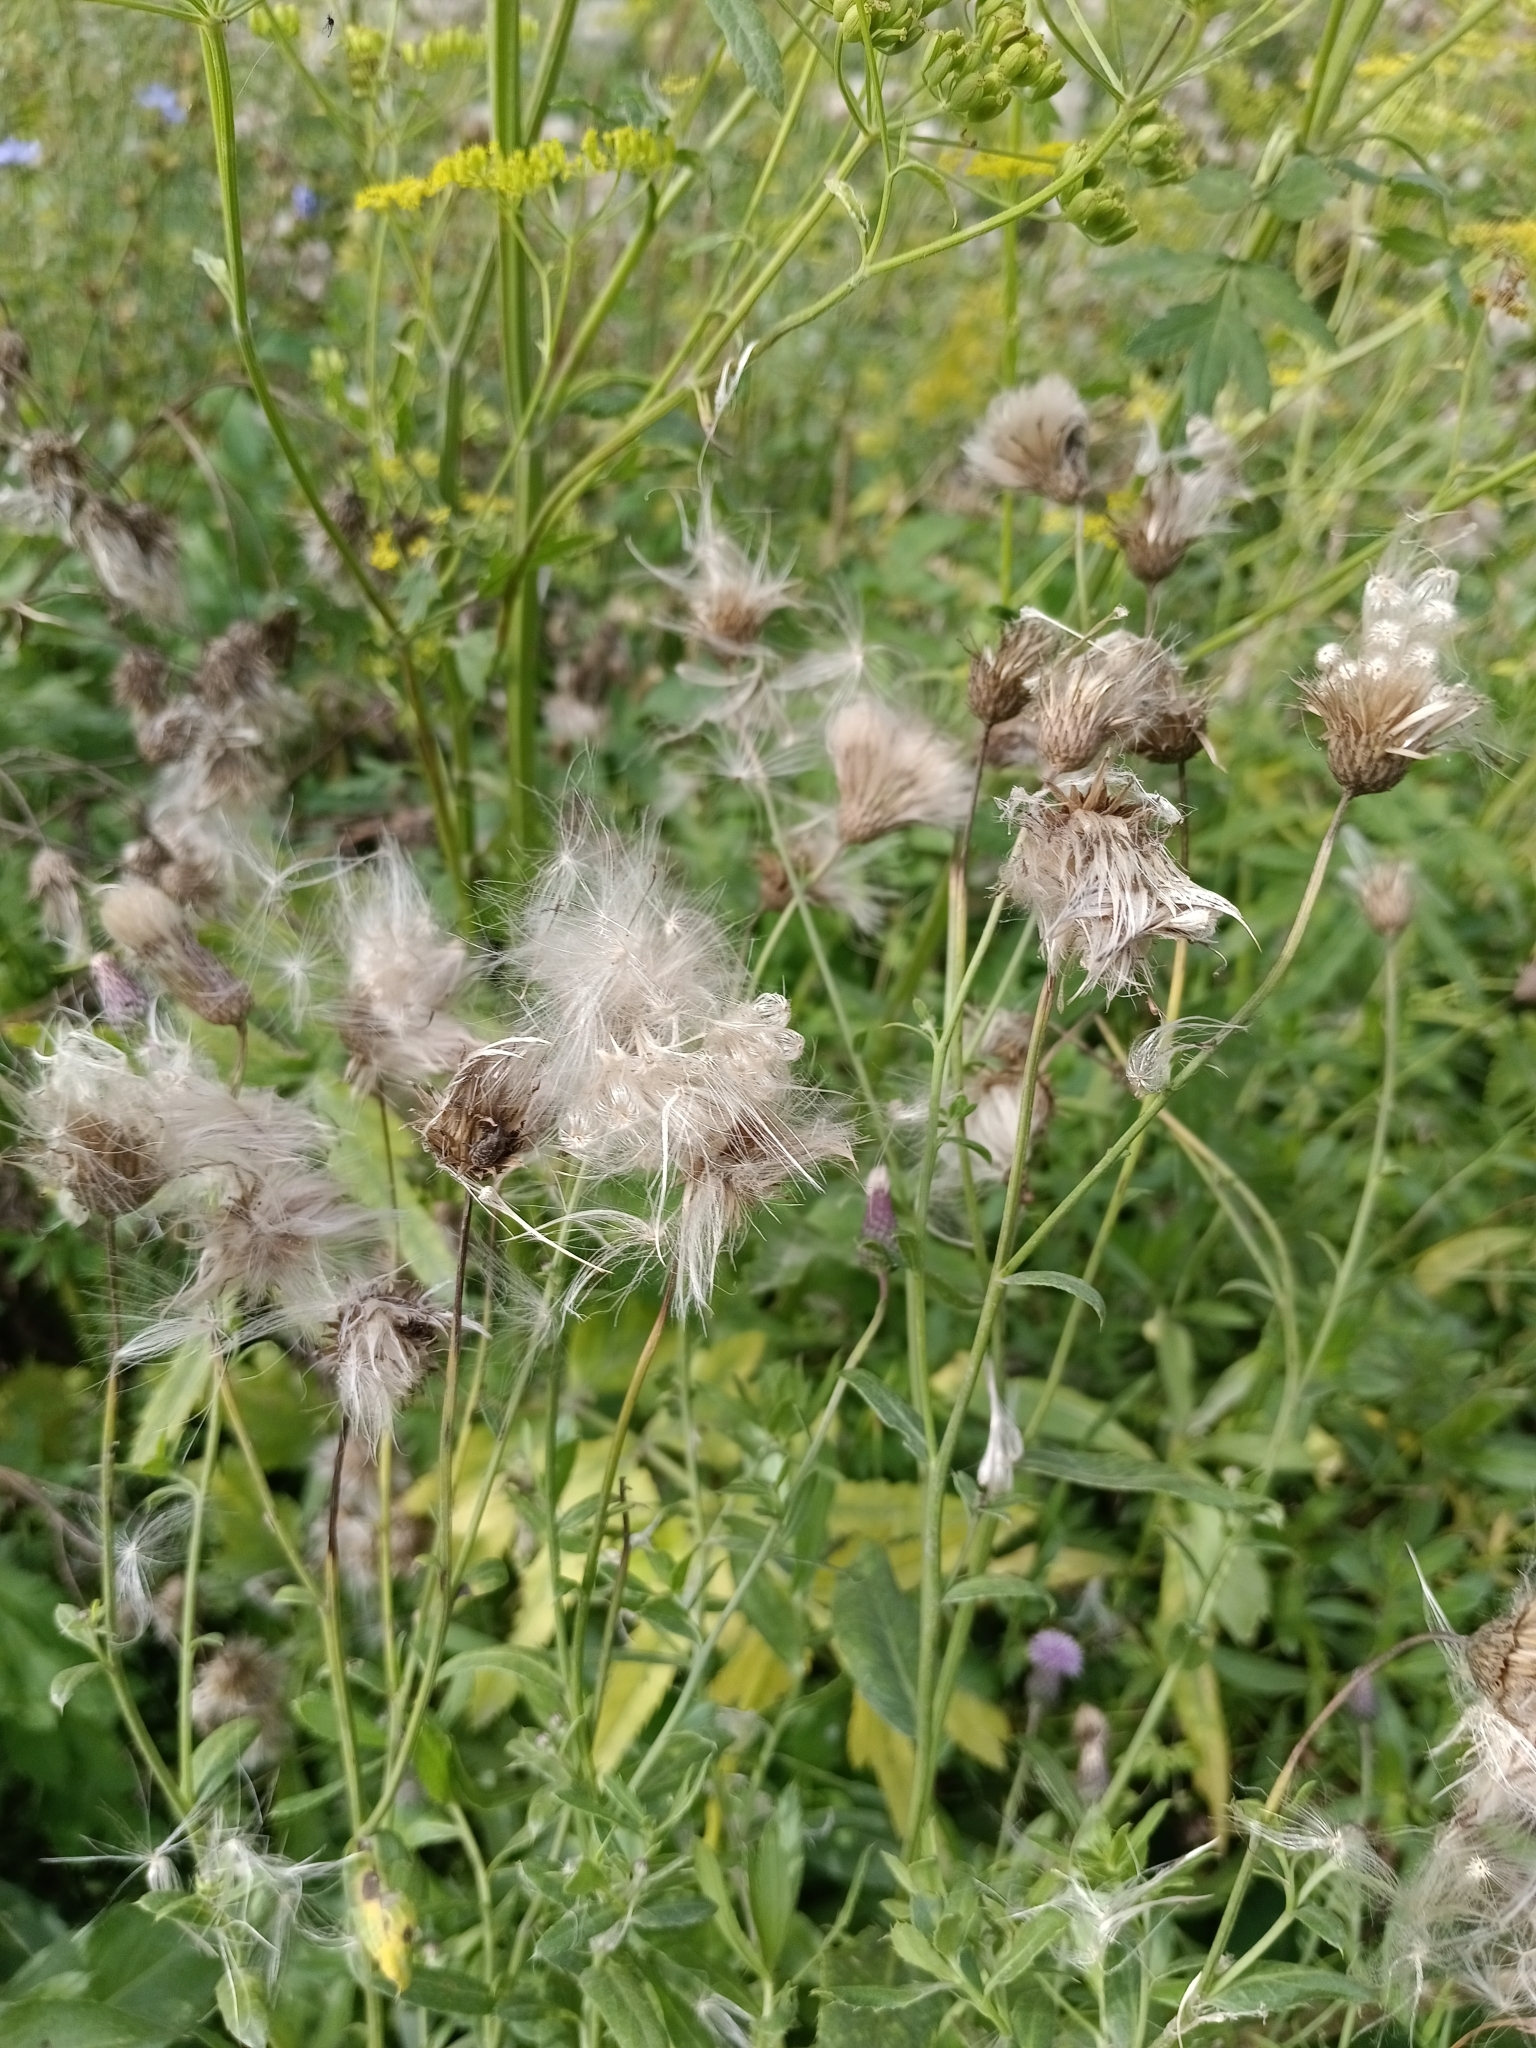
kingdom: Plantae
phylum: Tracheophyta
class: Magnoliopsida
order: Asterales
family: Asteraceae
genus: Cirsium
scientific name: Cirsium arvense
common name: Creeping thistle
